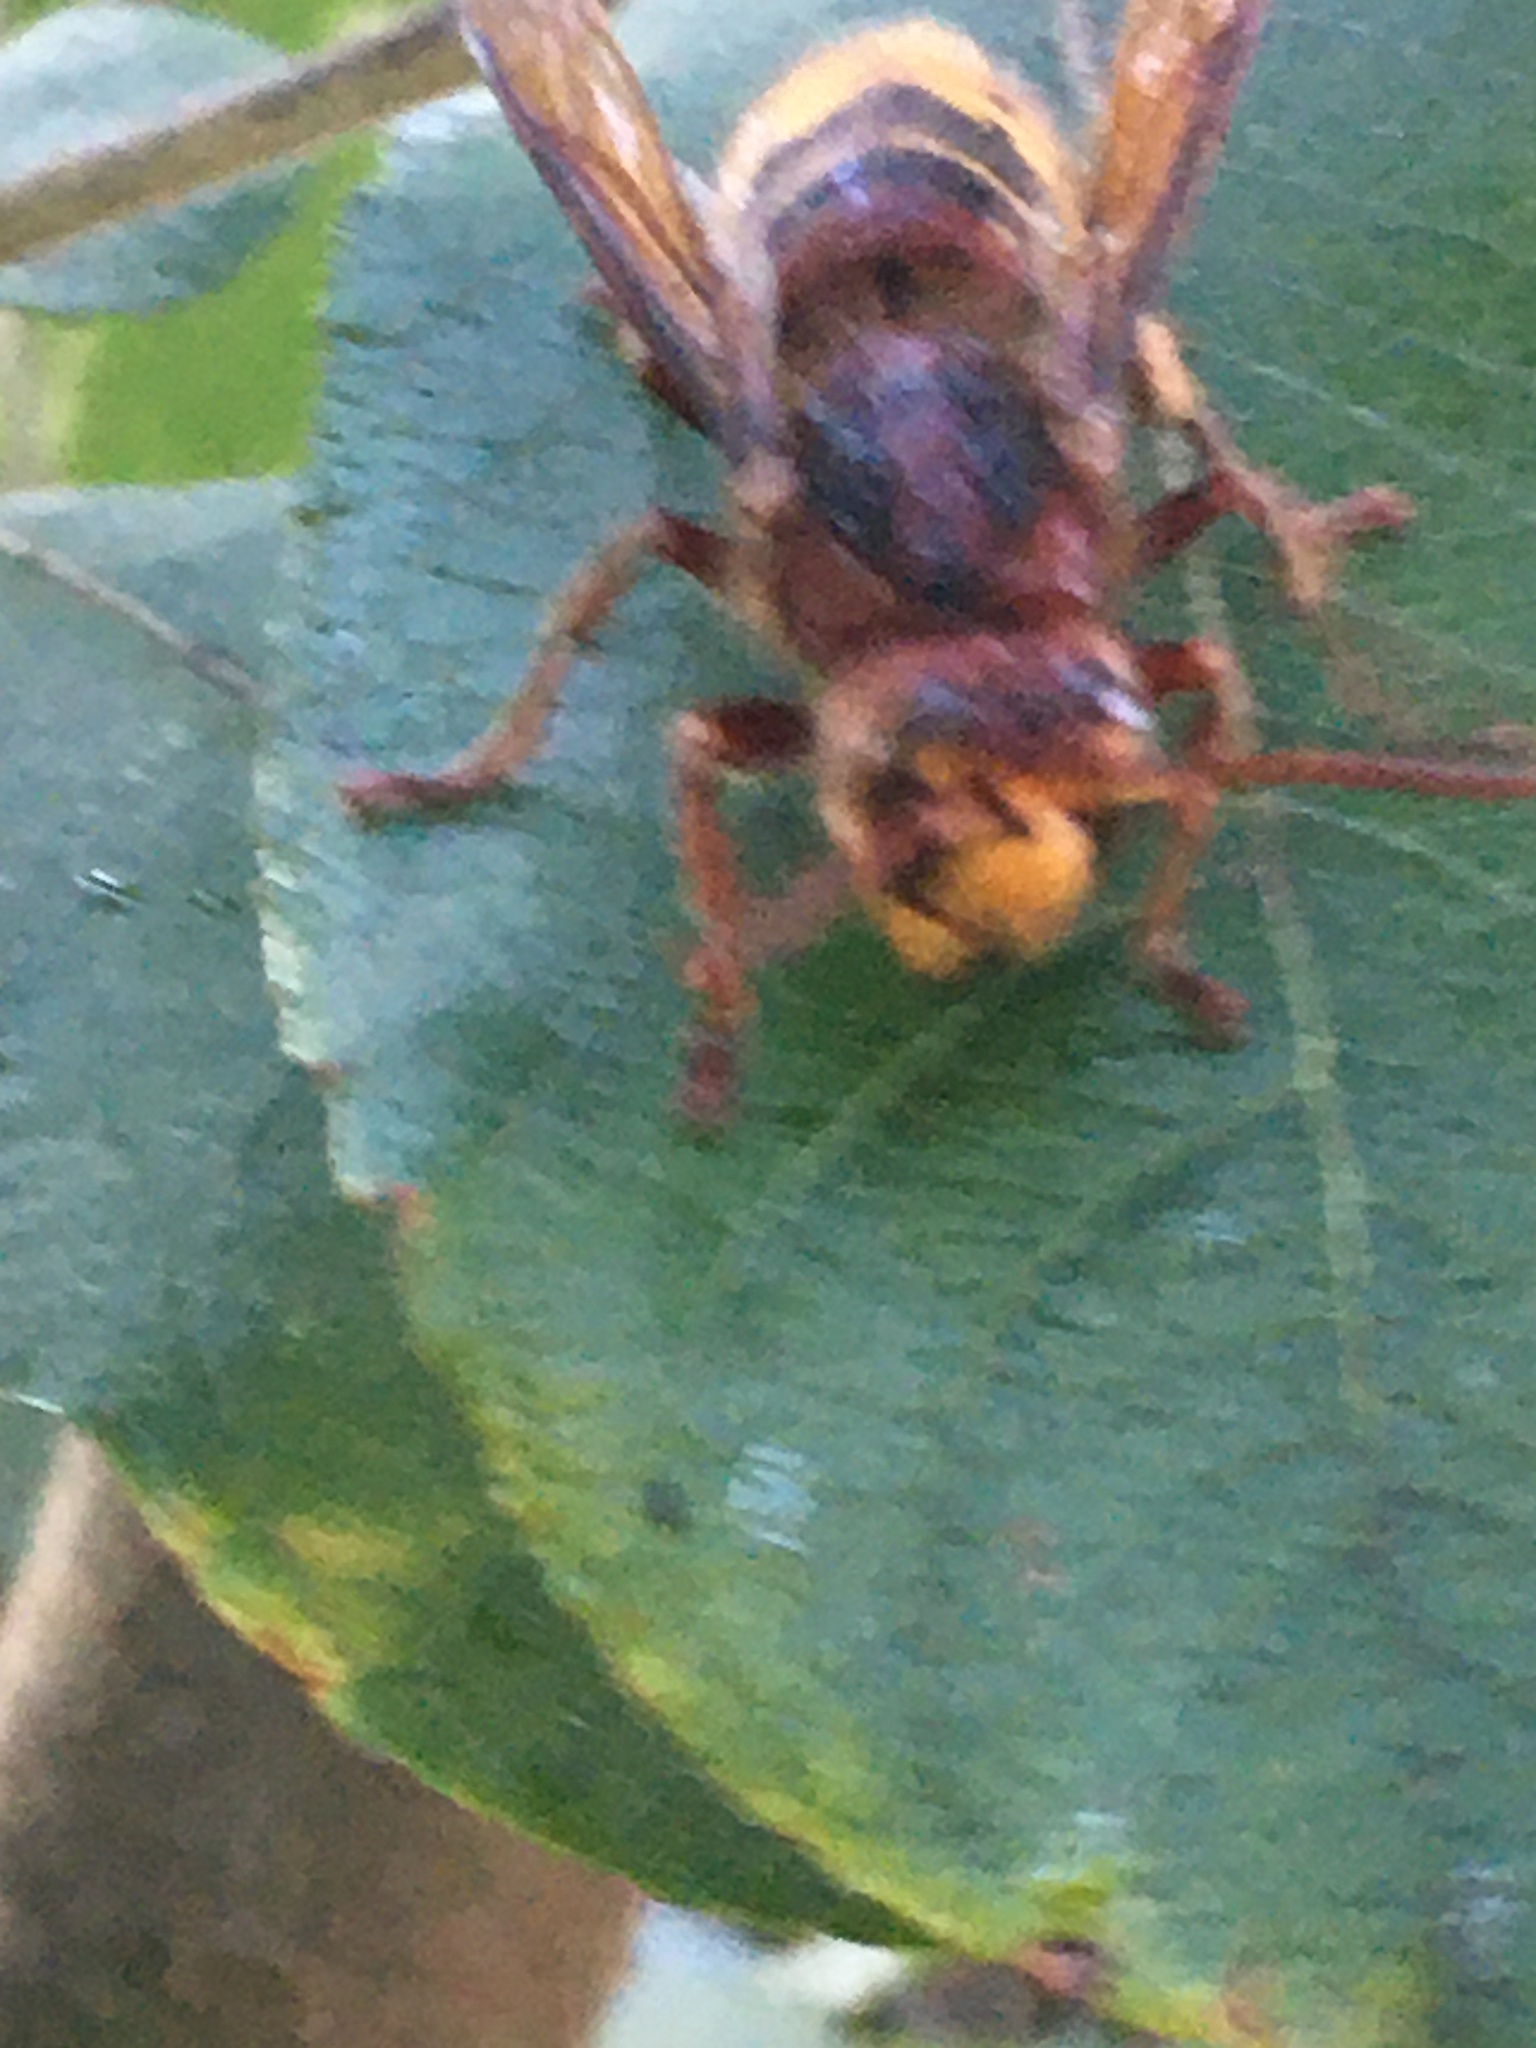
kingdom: Animalia
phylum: Arthropoda
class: Insecta
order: Hymenoptera
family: Vespidae
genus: Vespa
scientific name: Vespa crabro
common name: Hornet
